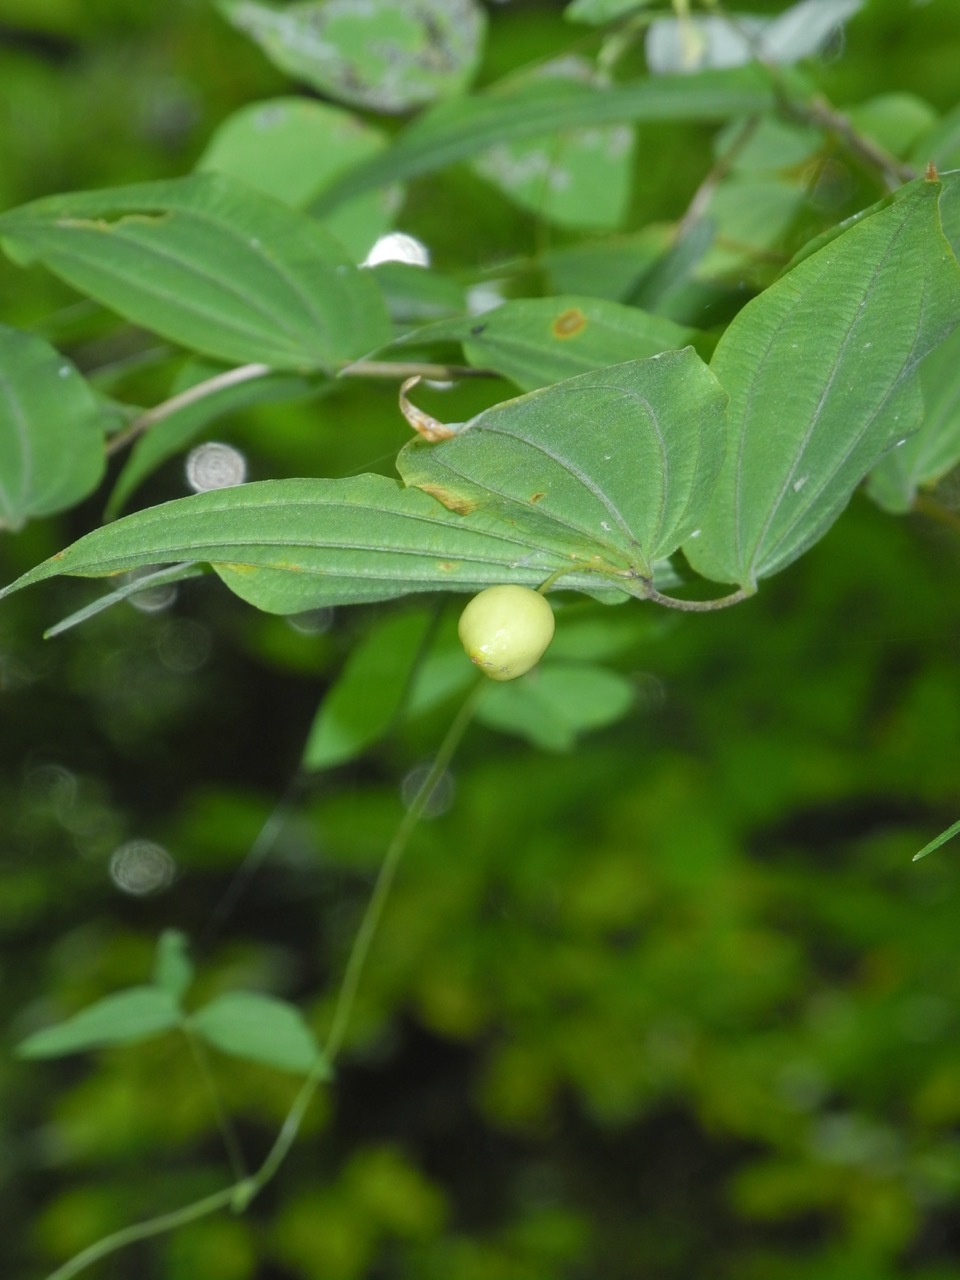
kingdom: Plantae
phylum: Tracheophyta
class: Liliopsida
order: Liliales
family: Liliaceae
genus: Prosartes
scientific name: Prosartes lanuginosa
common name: Hairy mandarin
